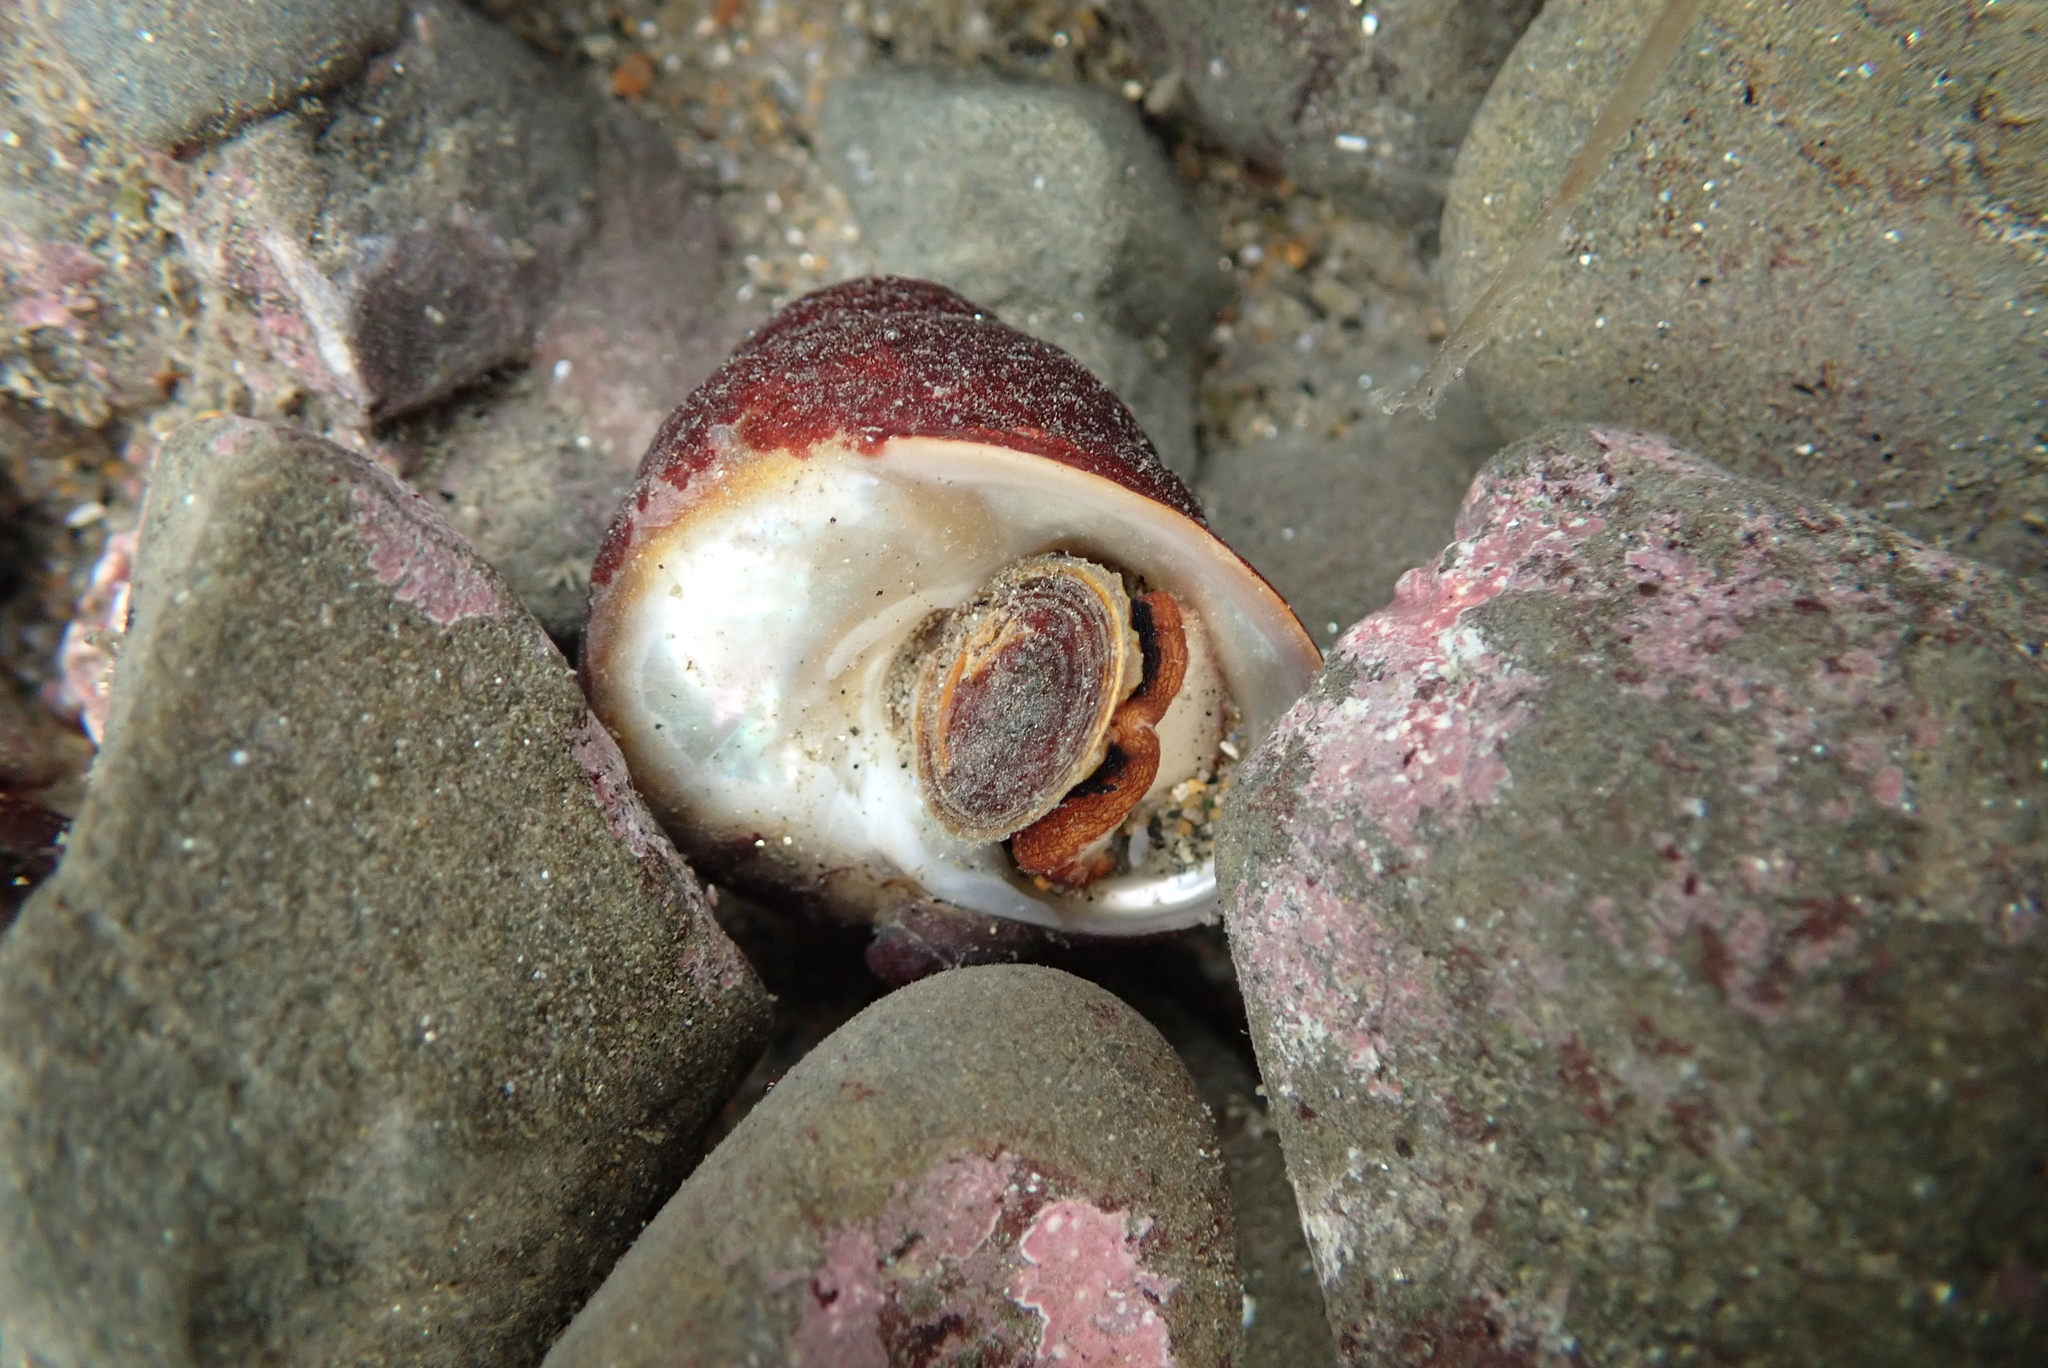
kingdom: Animalia
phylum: Mollusca
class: Gastropoda
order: Trochida
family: Tegulidae
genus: Tegula
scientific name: Tegula brunnea
